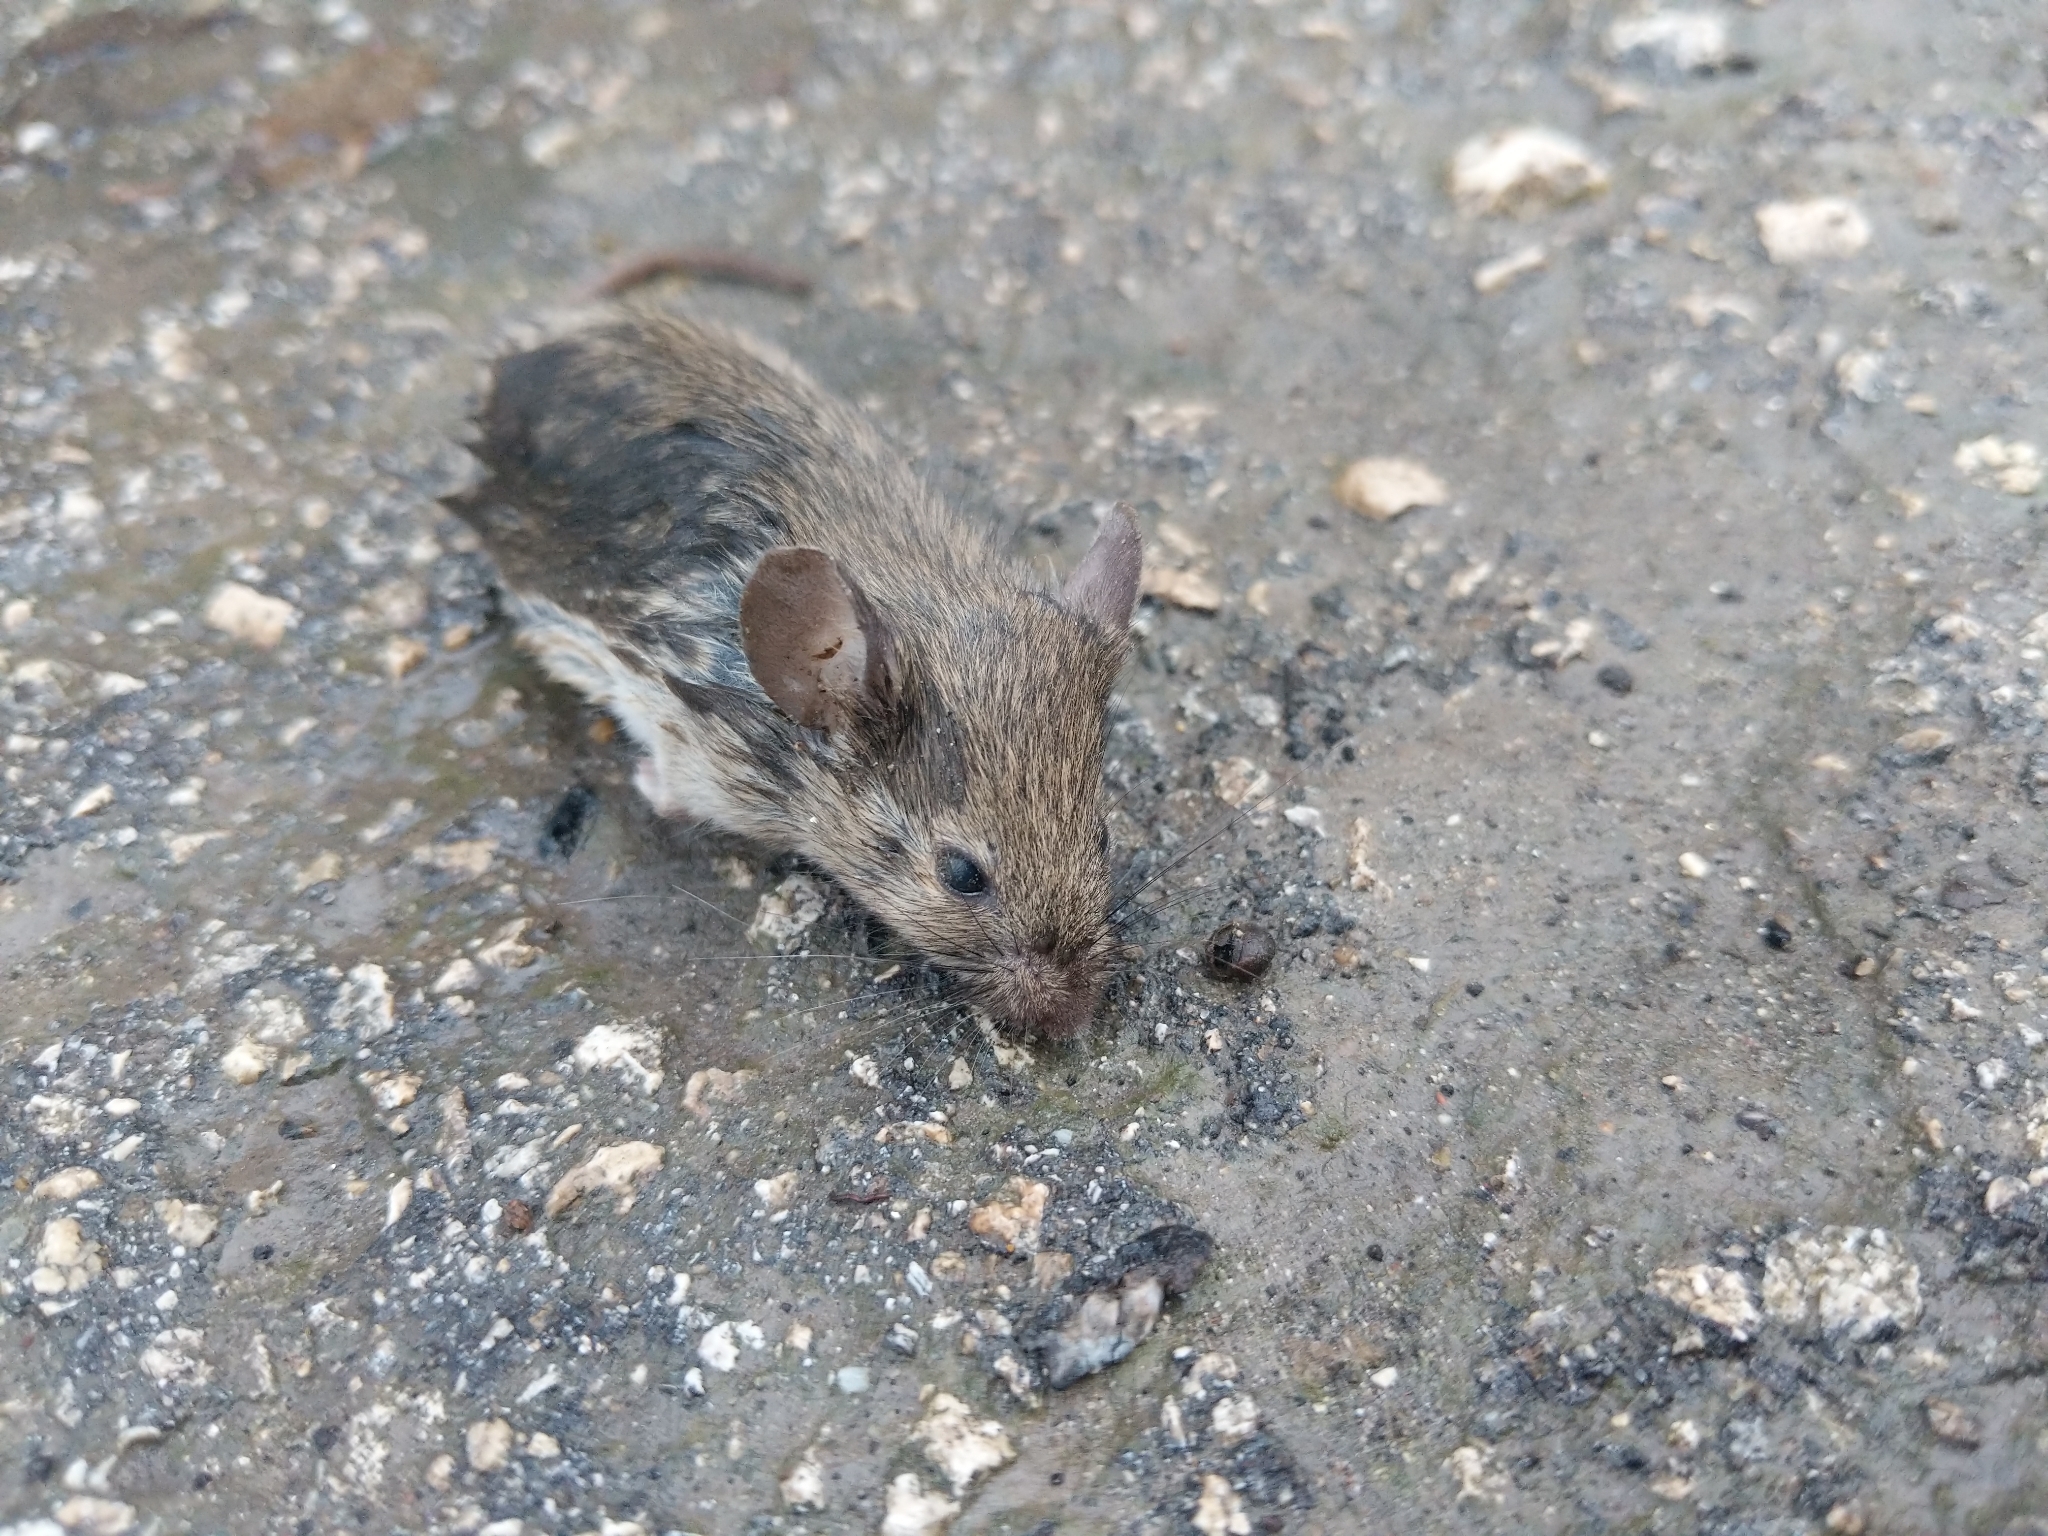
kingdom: Animalia
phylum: Chordata
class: Mammalia
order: Rodentia
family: Muridae
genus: Mus
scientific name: Mus musculus
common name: House mouse
